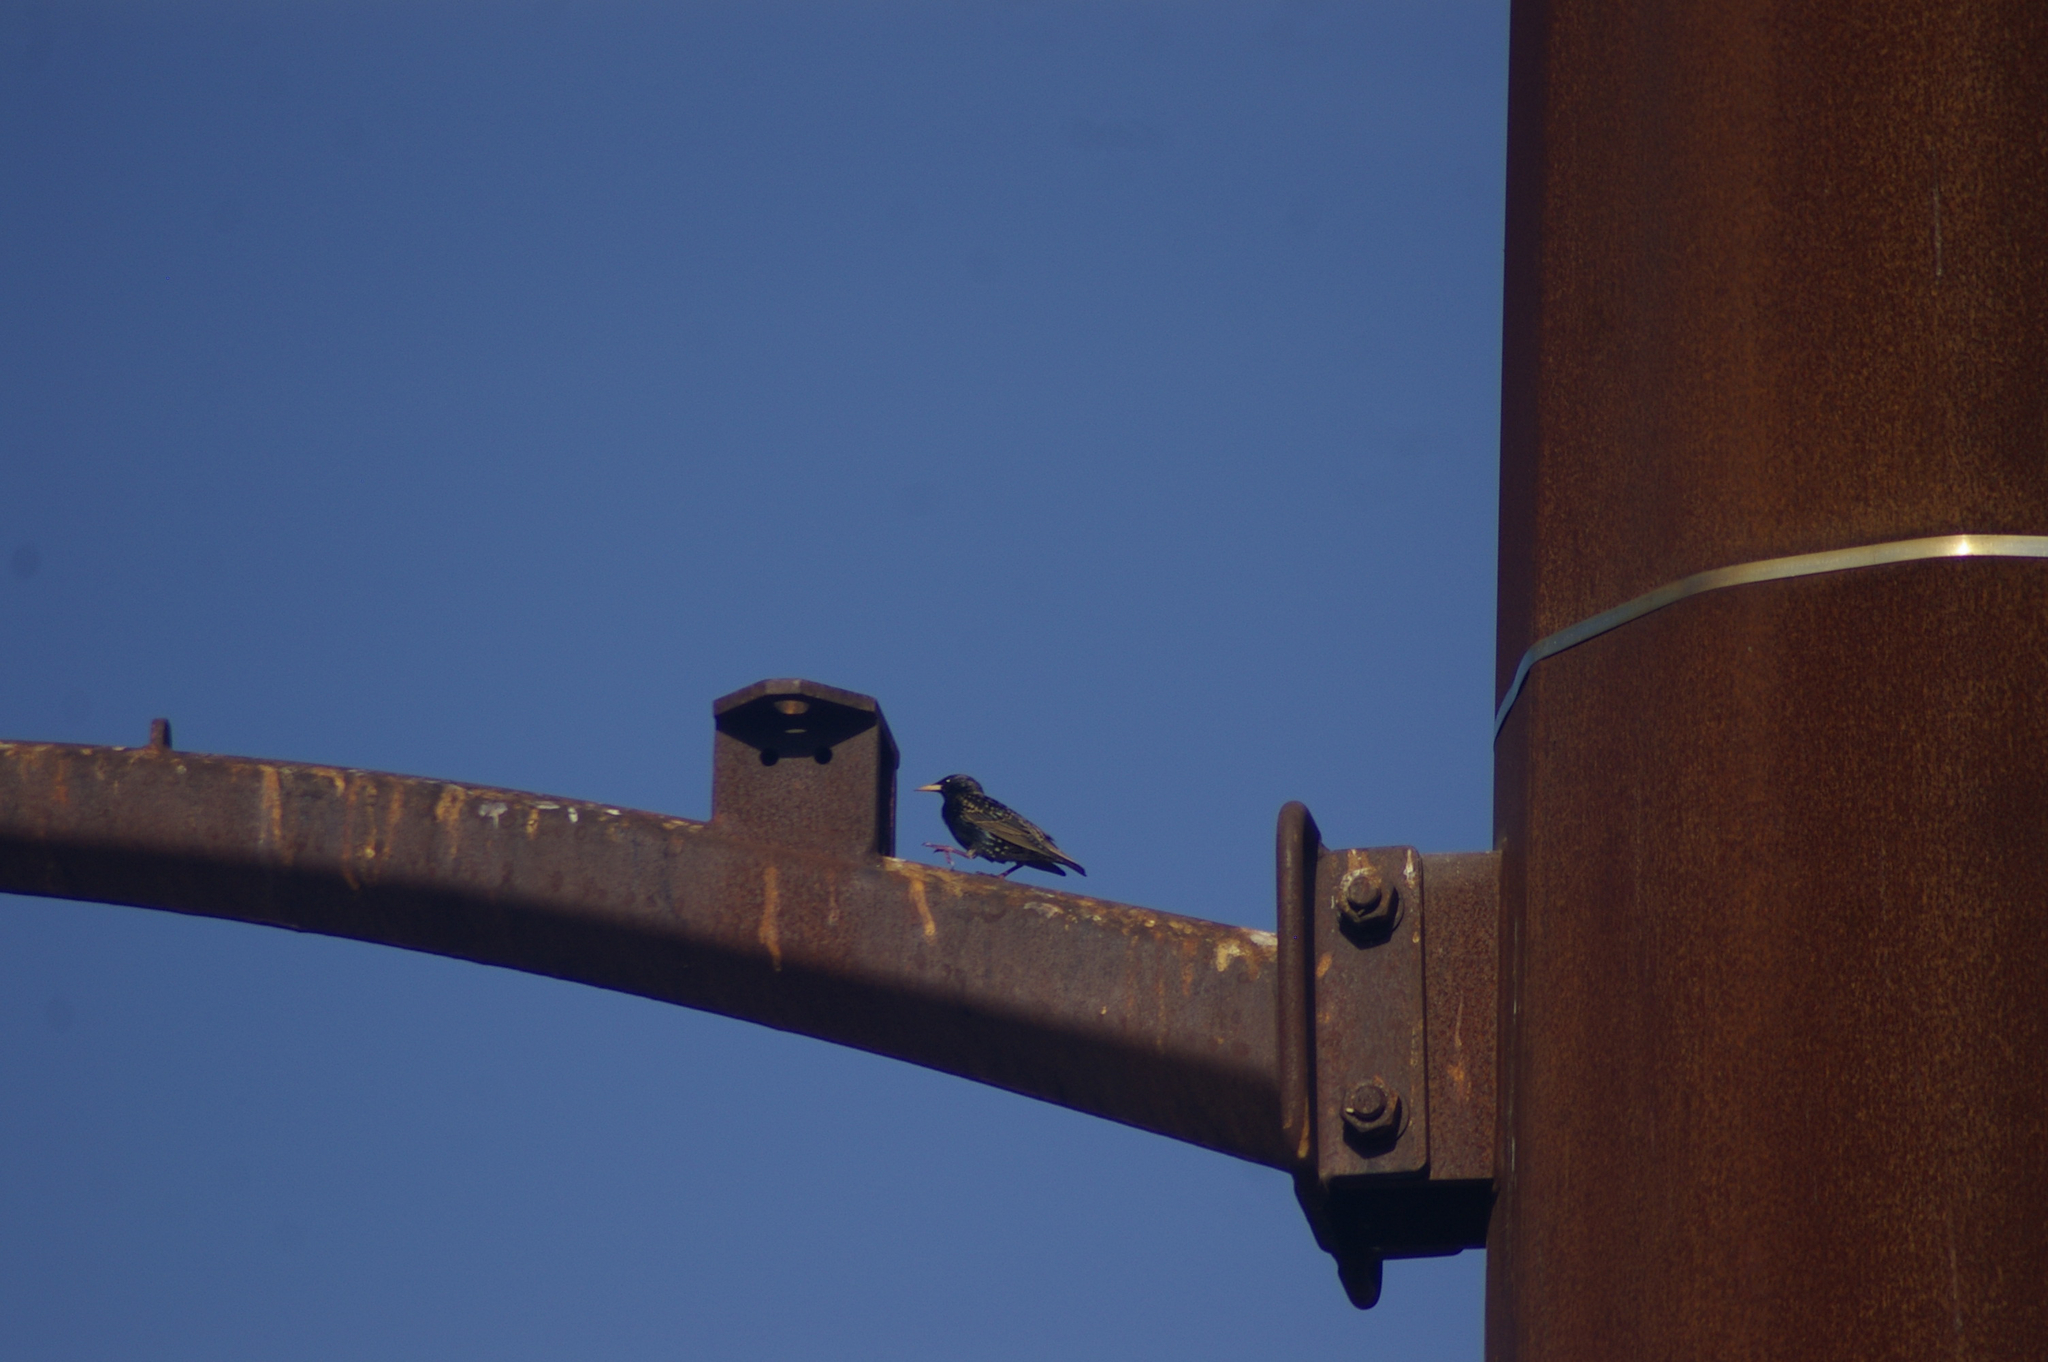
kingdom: Animalia
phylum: Chordata
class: Aves
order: Passeriformes
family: Sturnidae
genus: Sturnus
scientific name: Sturnus vulgaris
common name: Common starling
